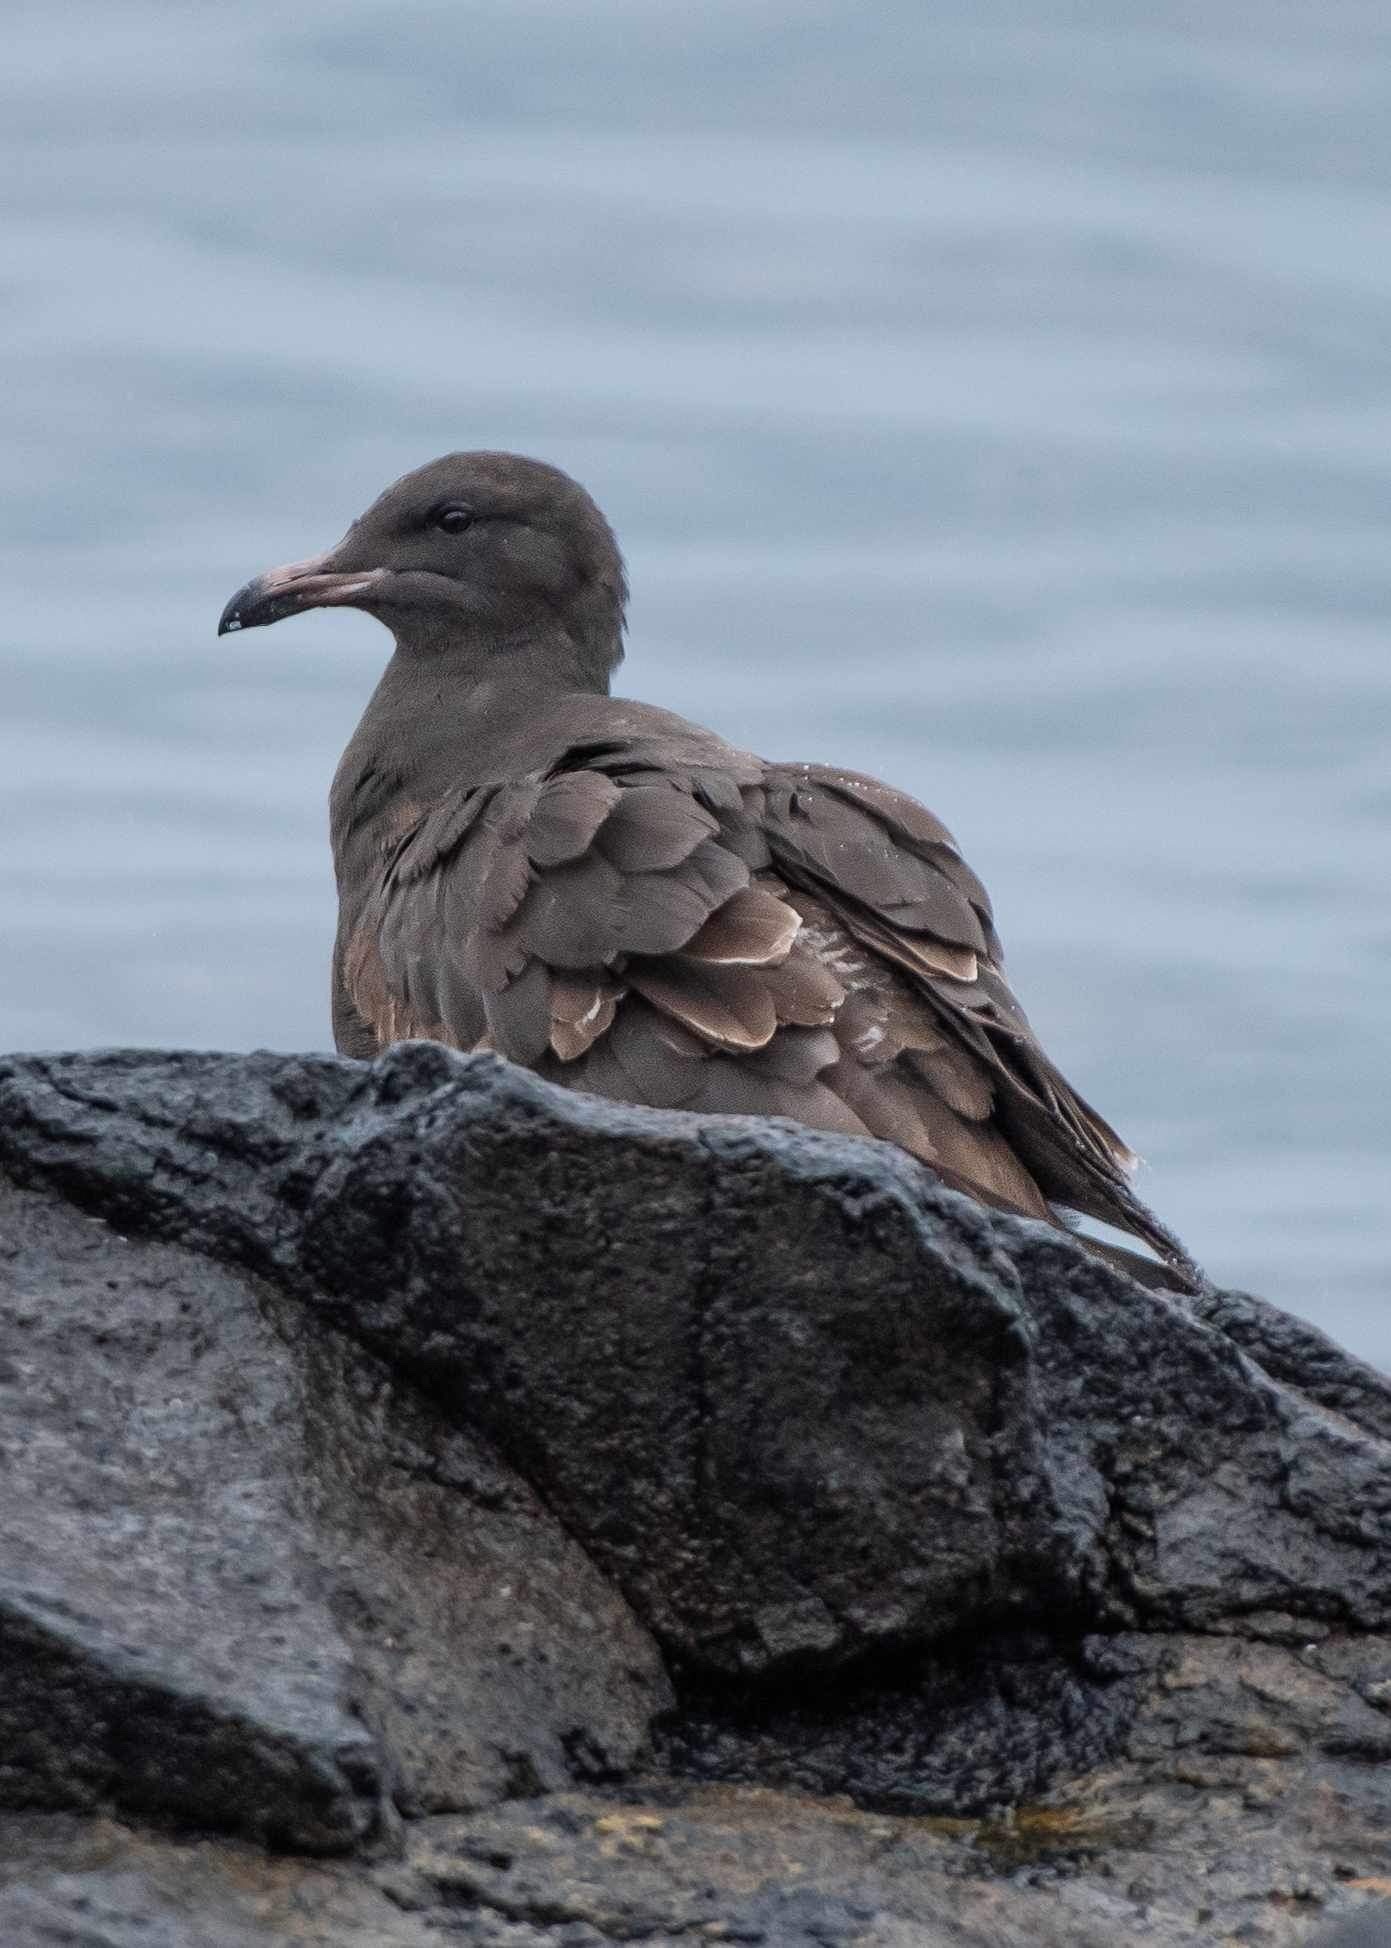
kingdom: Animalia
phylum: Chordata
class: Aves
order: Charadriiformes
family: Laridae
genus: Larus
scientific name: Larus heermanni
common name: Heermann's gull
